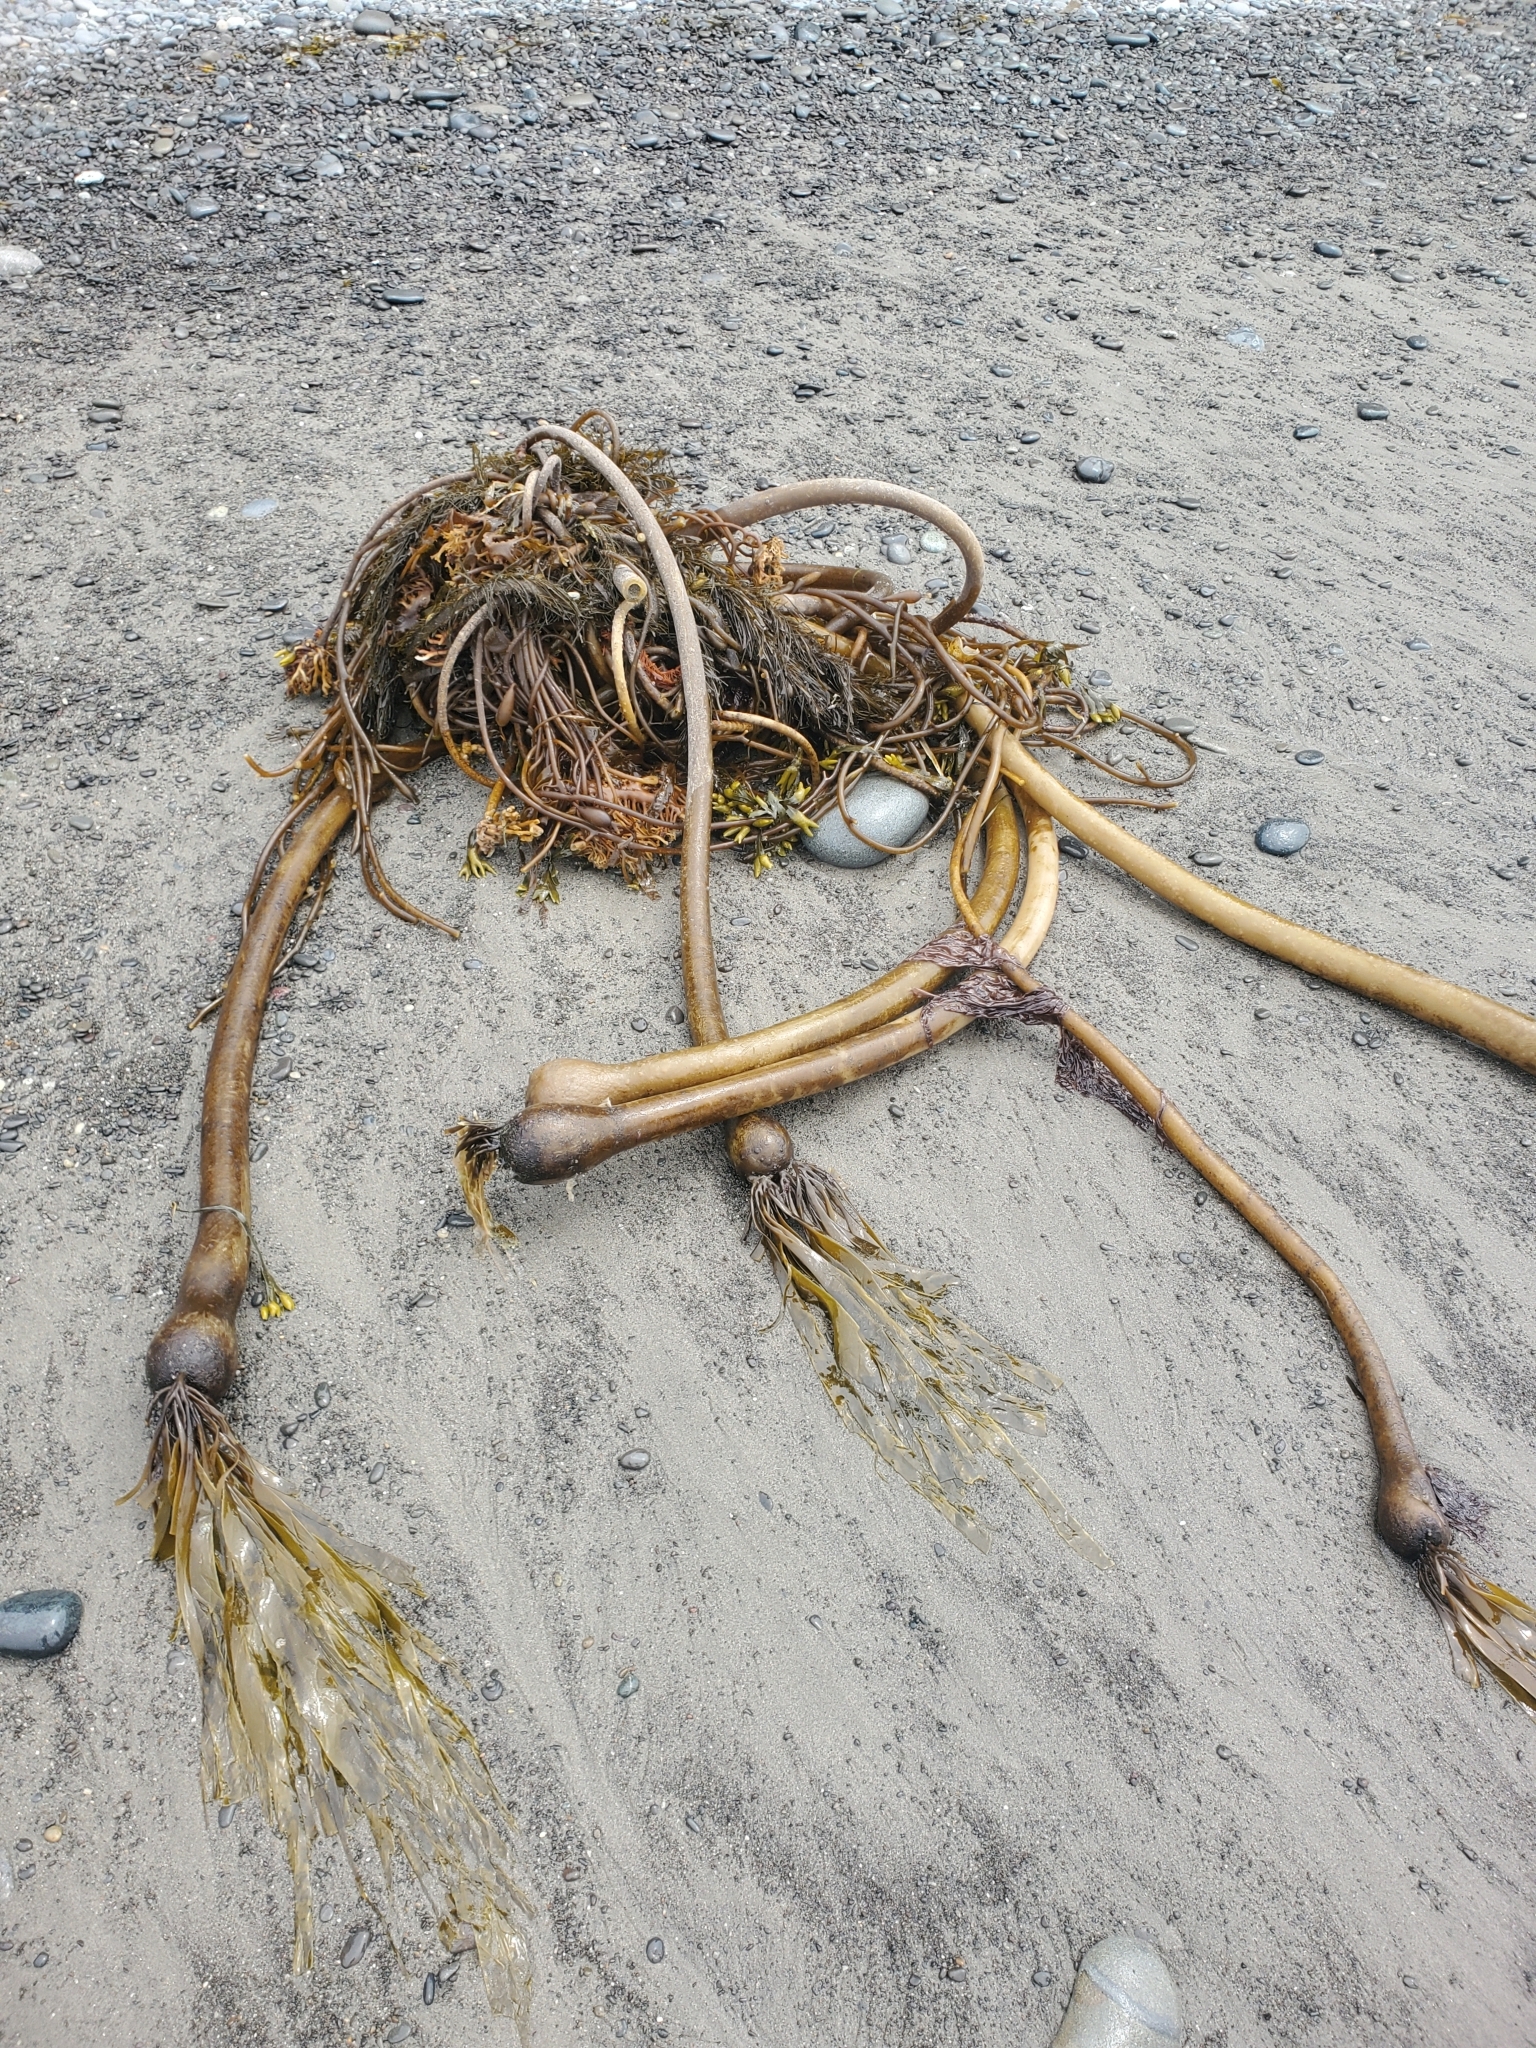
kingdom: Chromista
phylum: Ochrophyta
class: Phaeophyceae
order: Laminariales
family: Laminariaceae
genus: Nereocystis
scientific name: Nereocystis luetkeana
